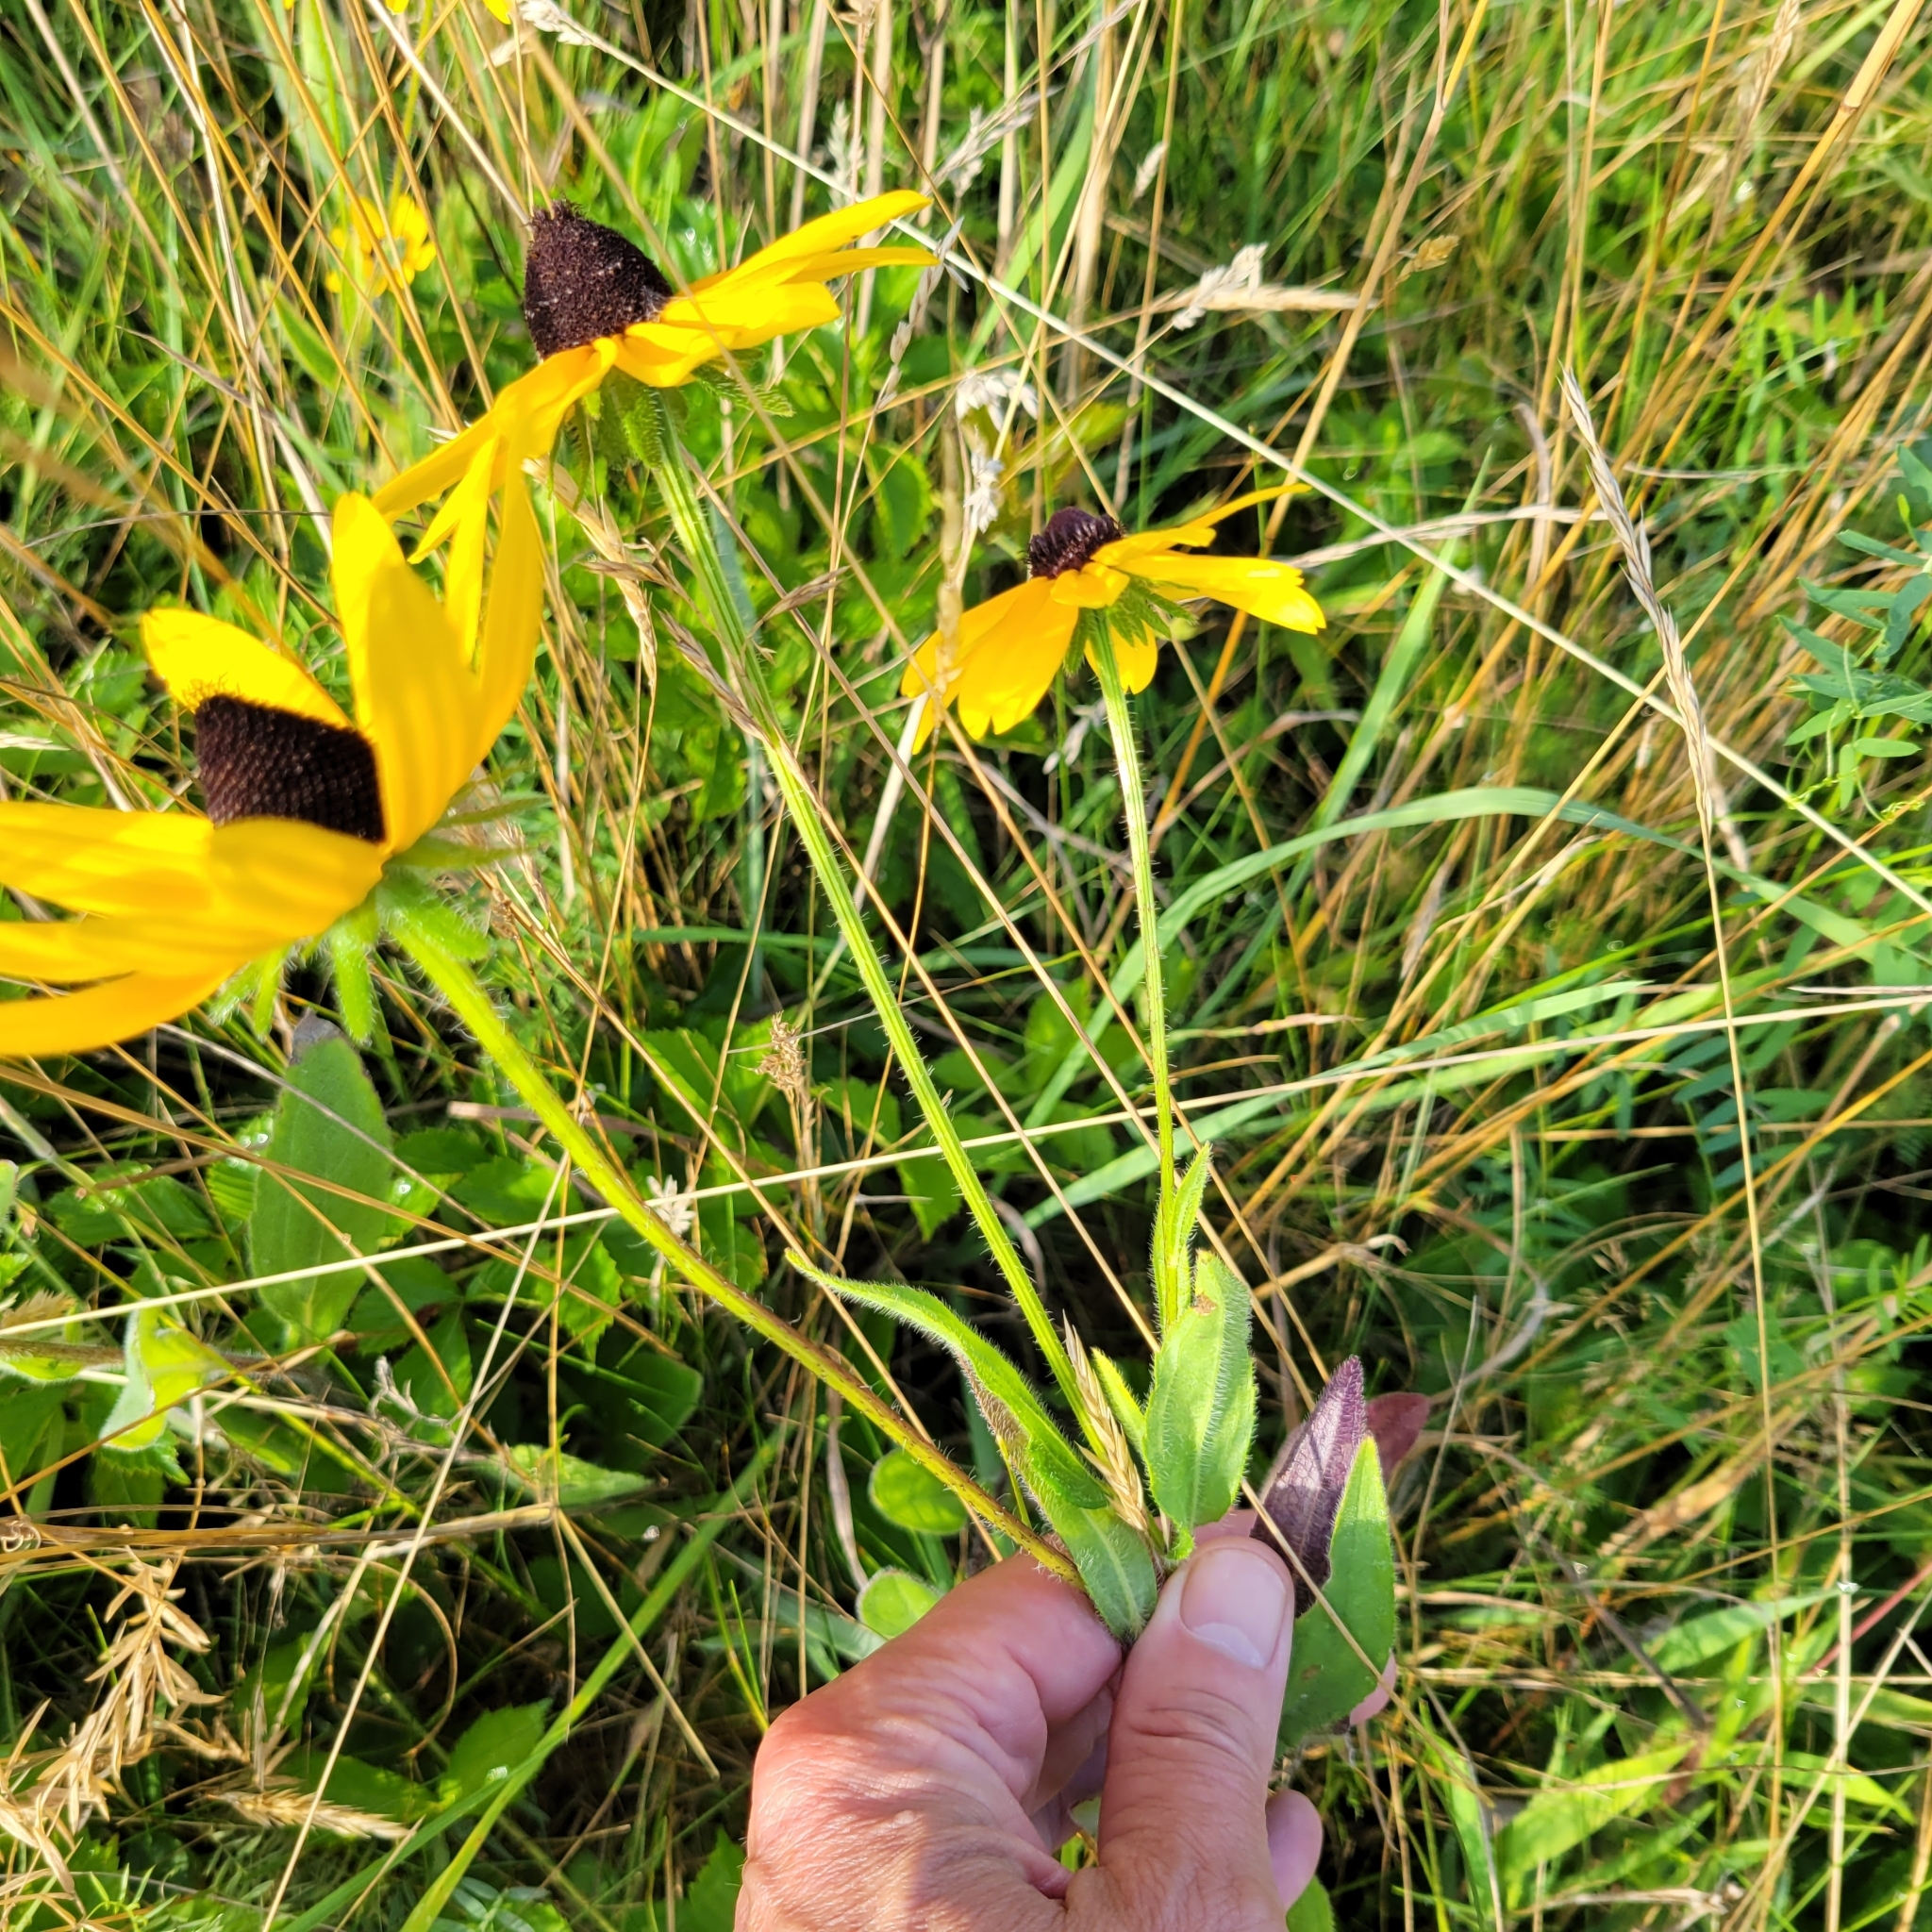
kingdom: Plantae
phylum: Tracheophyta
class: Magnoliopsida
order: Asterales
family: Asteraceae
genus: Rudbeckia
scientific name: Rudbeckia hirta
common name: Black-eyed-susan
